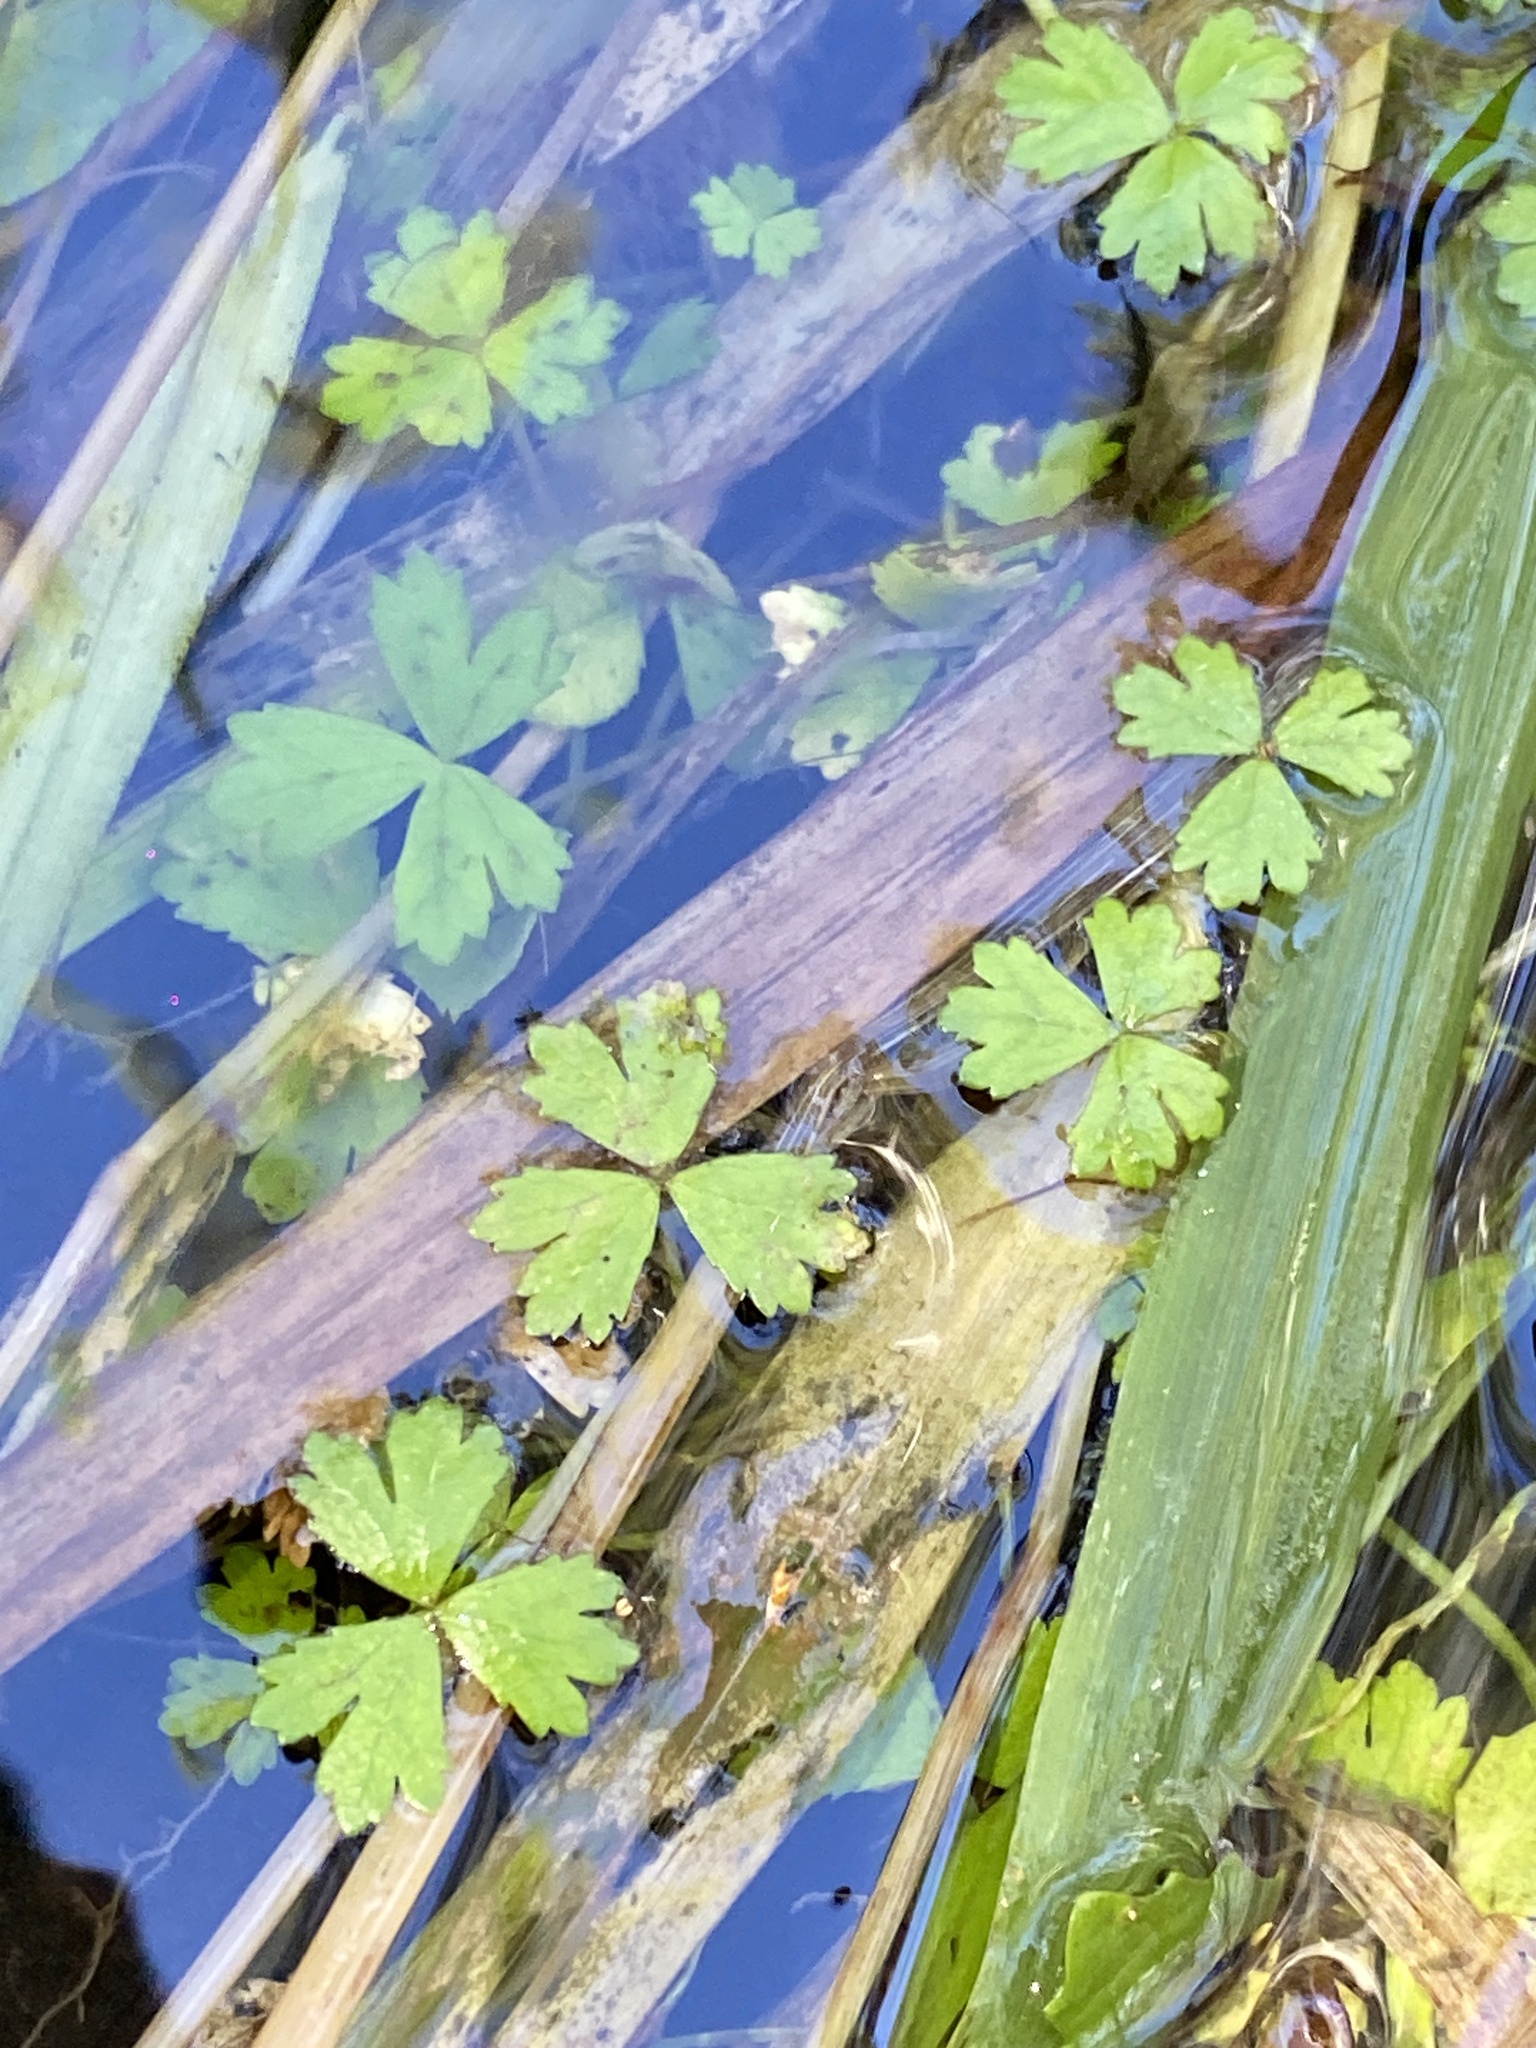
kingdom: Plantae
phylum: Tracheophyta
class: Magnoliopsida
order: Apiales
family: Araliaceae
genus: Hydrocotyle
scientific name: Hydrocotyle tripartita
